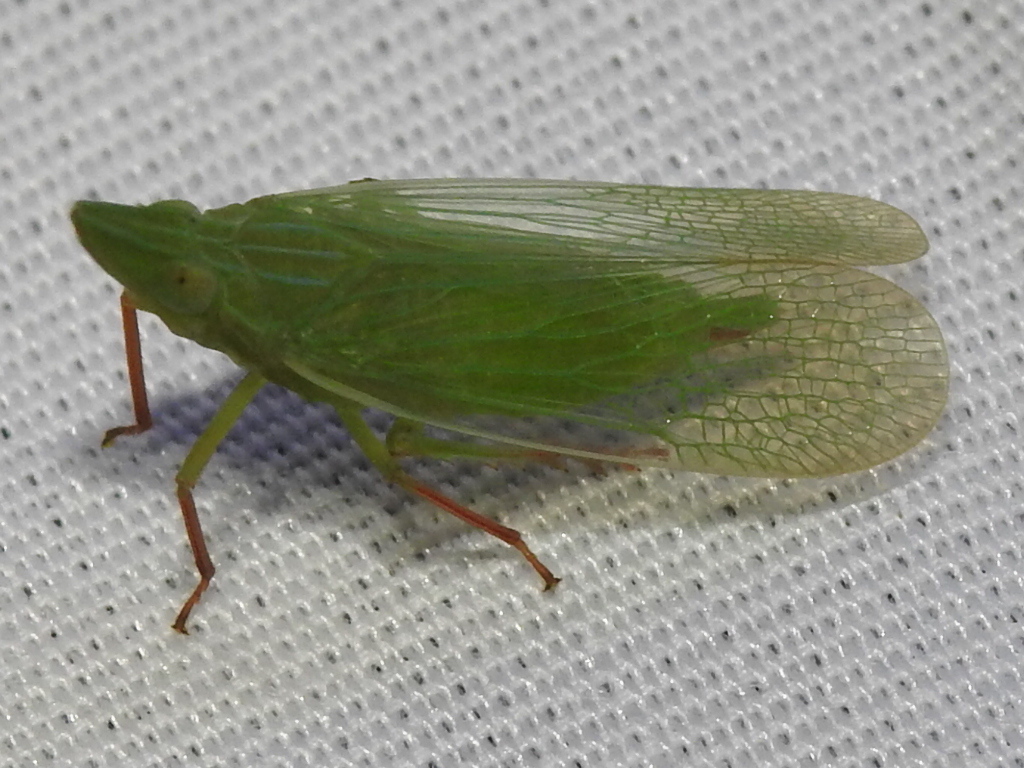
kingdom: Animalia
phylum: Arthropoda
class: Insecta
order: Hemiptera
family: Dictyopharidae
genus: Rhynchomitra
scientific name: Rhynchomitra recurva
